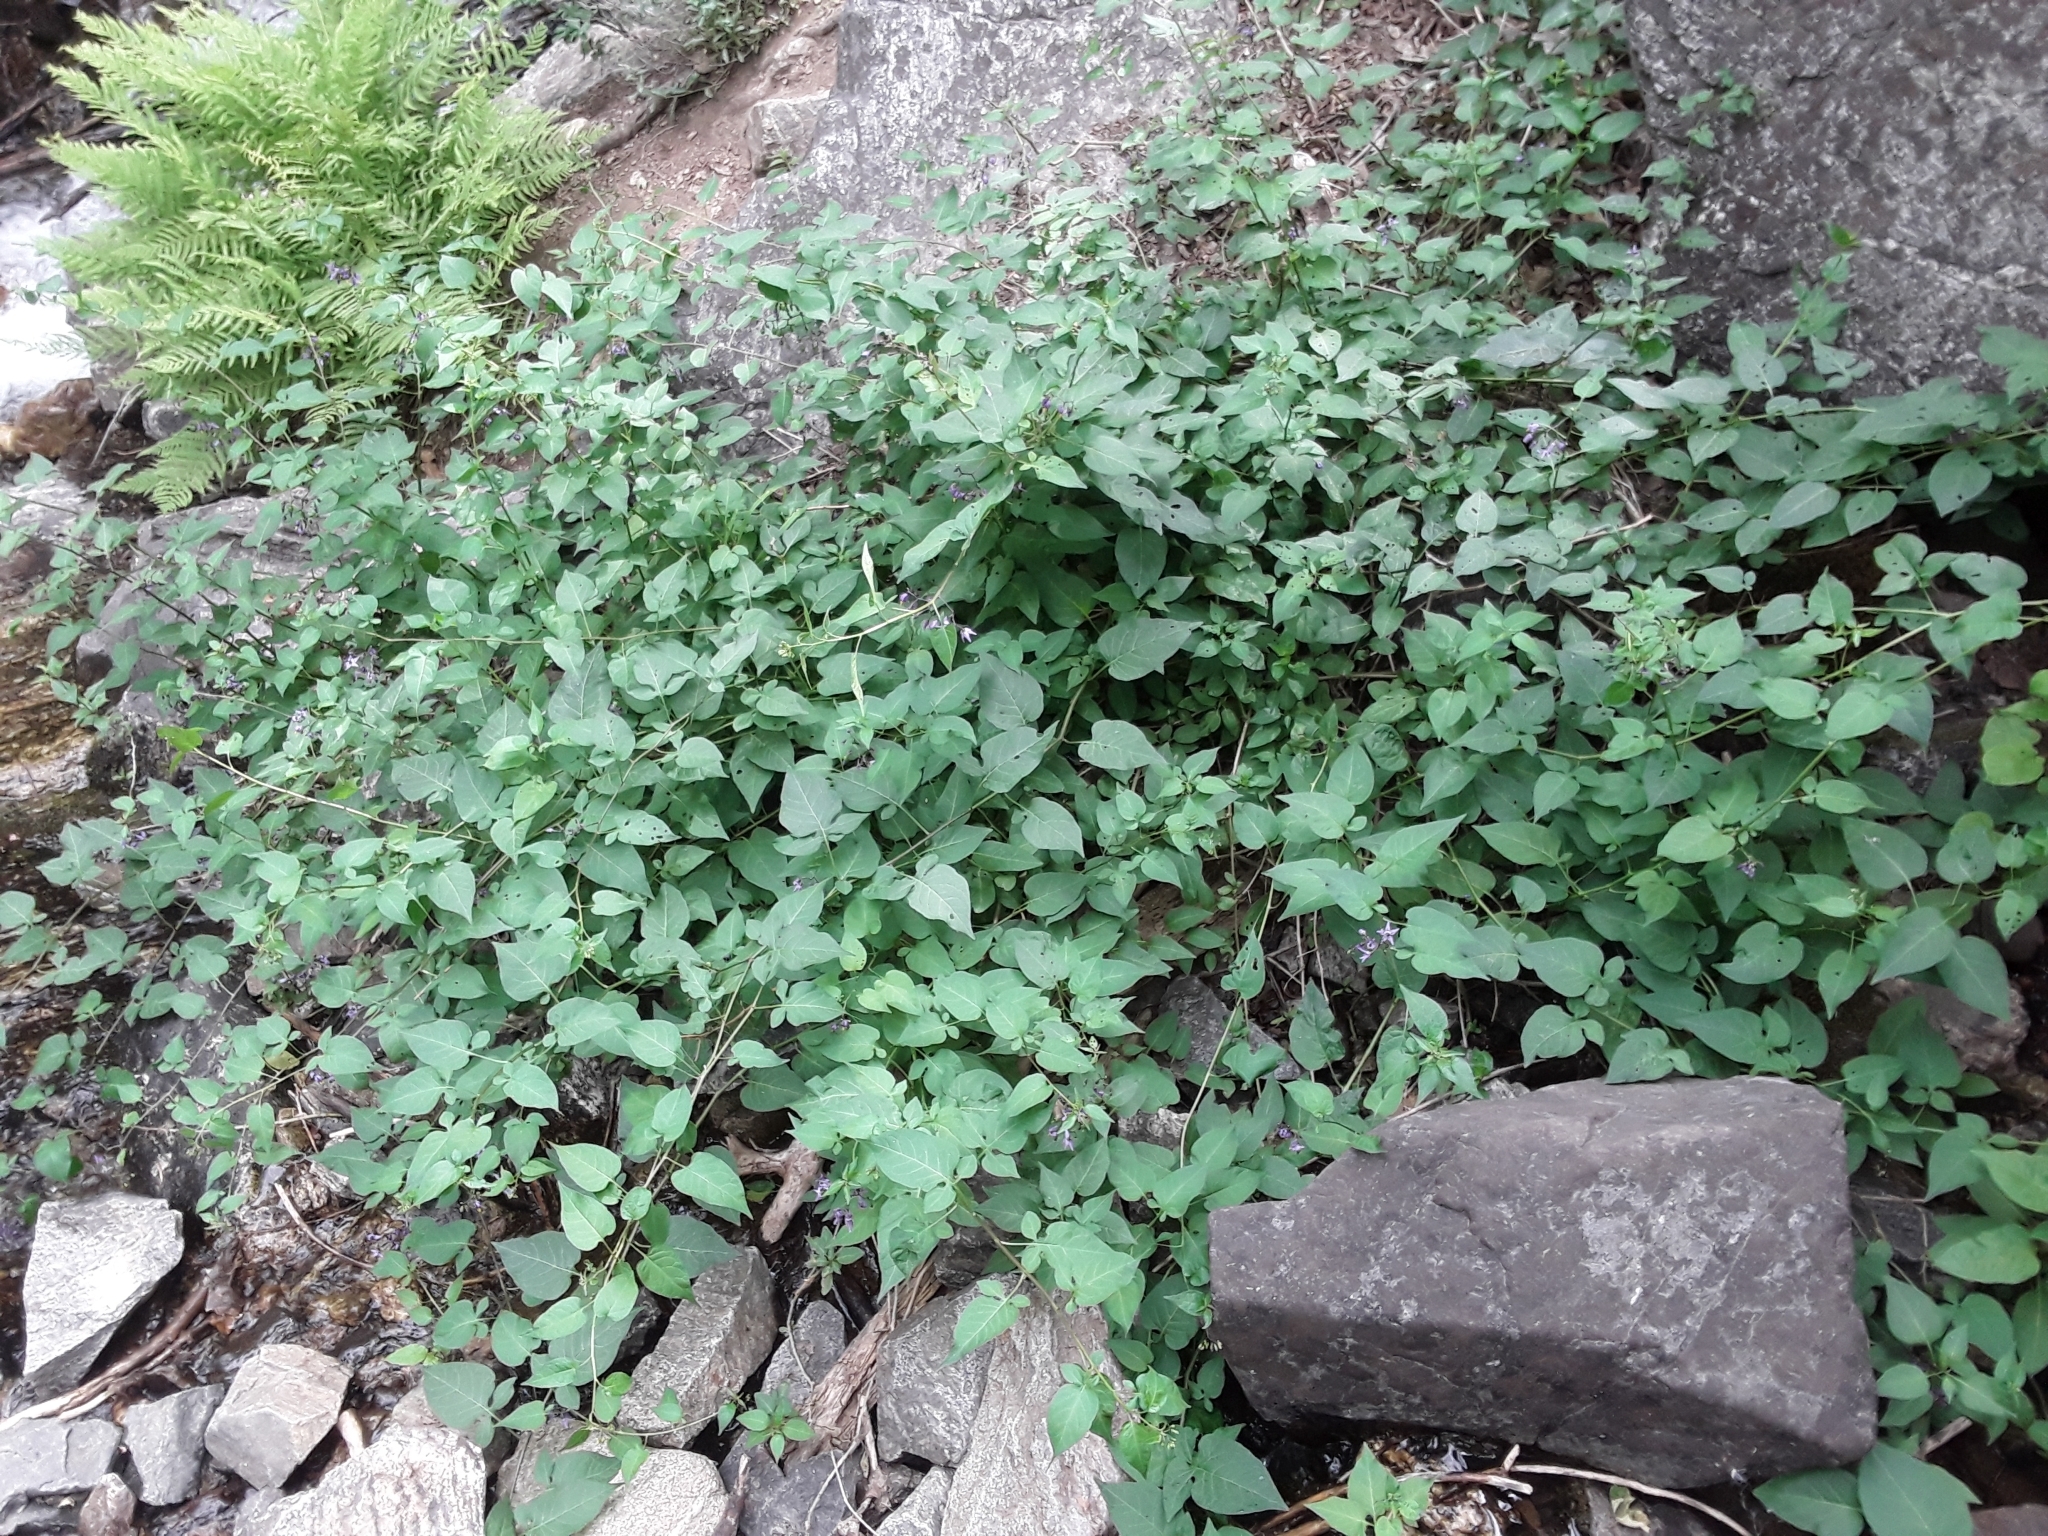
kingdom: Plantae
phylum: Tracheophyta
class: Magnoliopsida
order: Solanales
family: Solanaceae
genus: Solanum
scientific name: Solanum dulcamara
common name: Climbing nightshade
